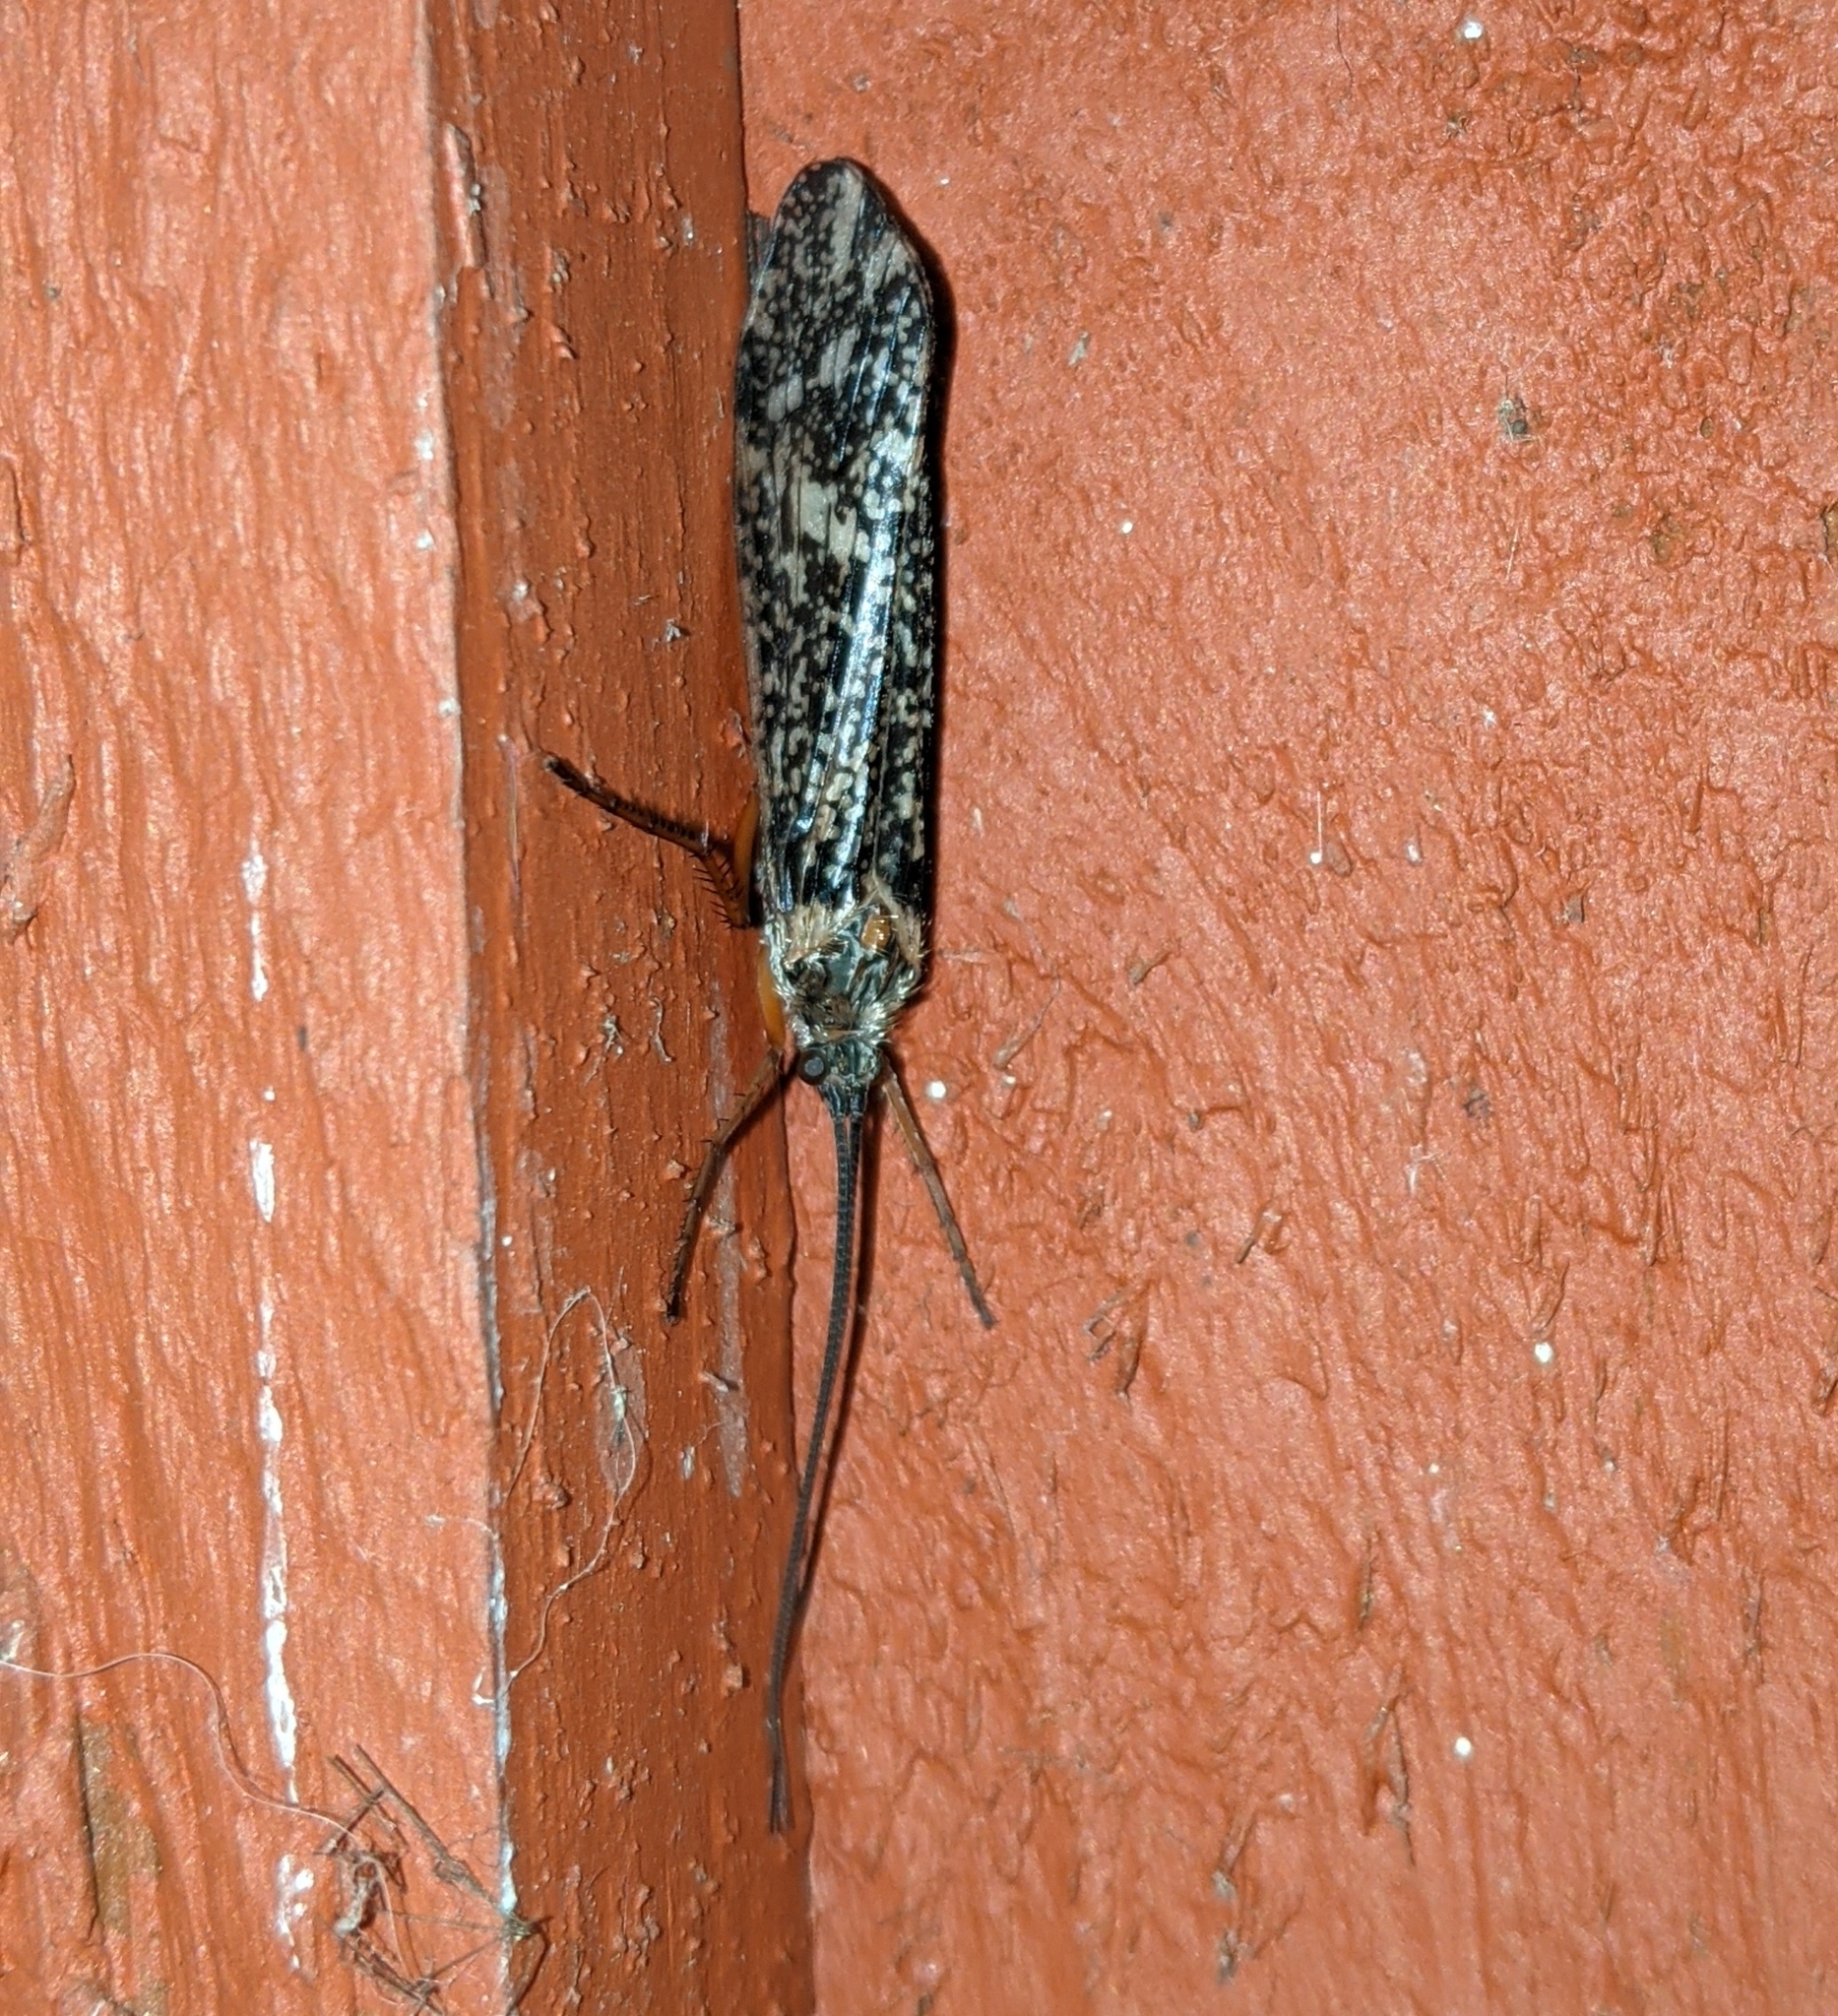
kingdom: Animalia
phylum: Arthropoda
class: Insecta
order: Trichoptera
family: Limnephilidae
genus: Clistoronia
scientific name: Clistoronia magnifica
